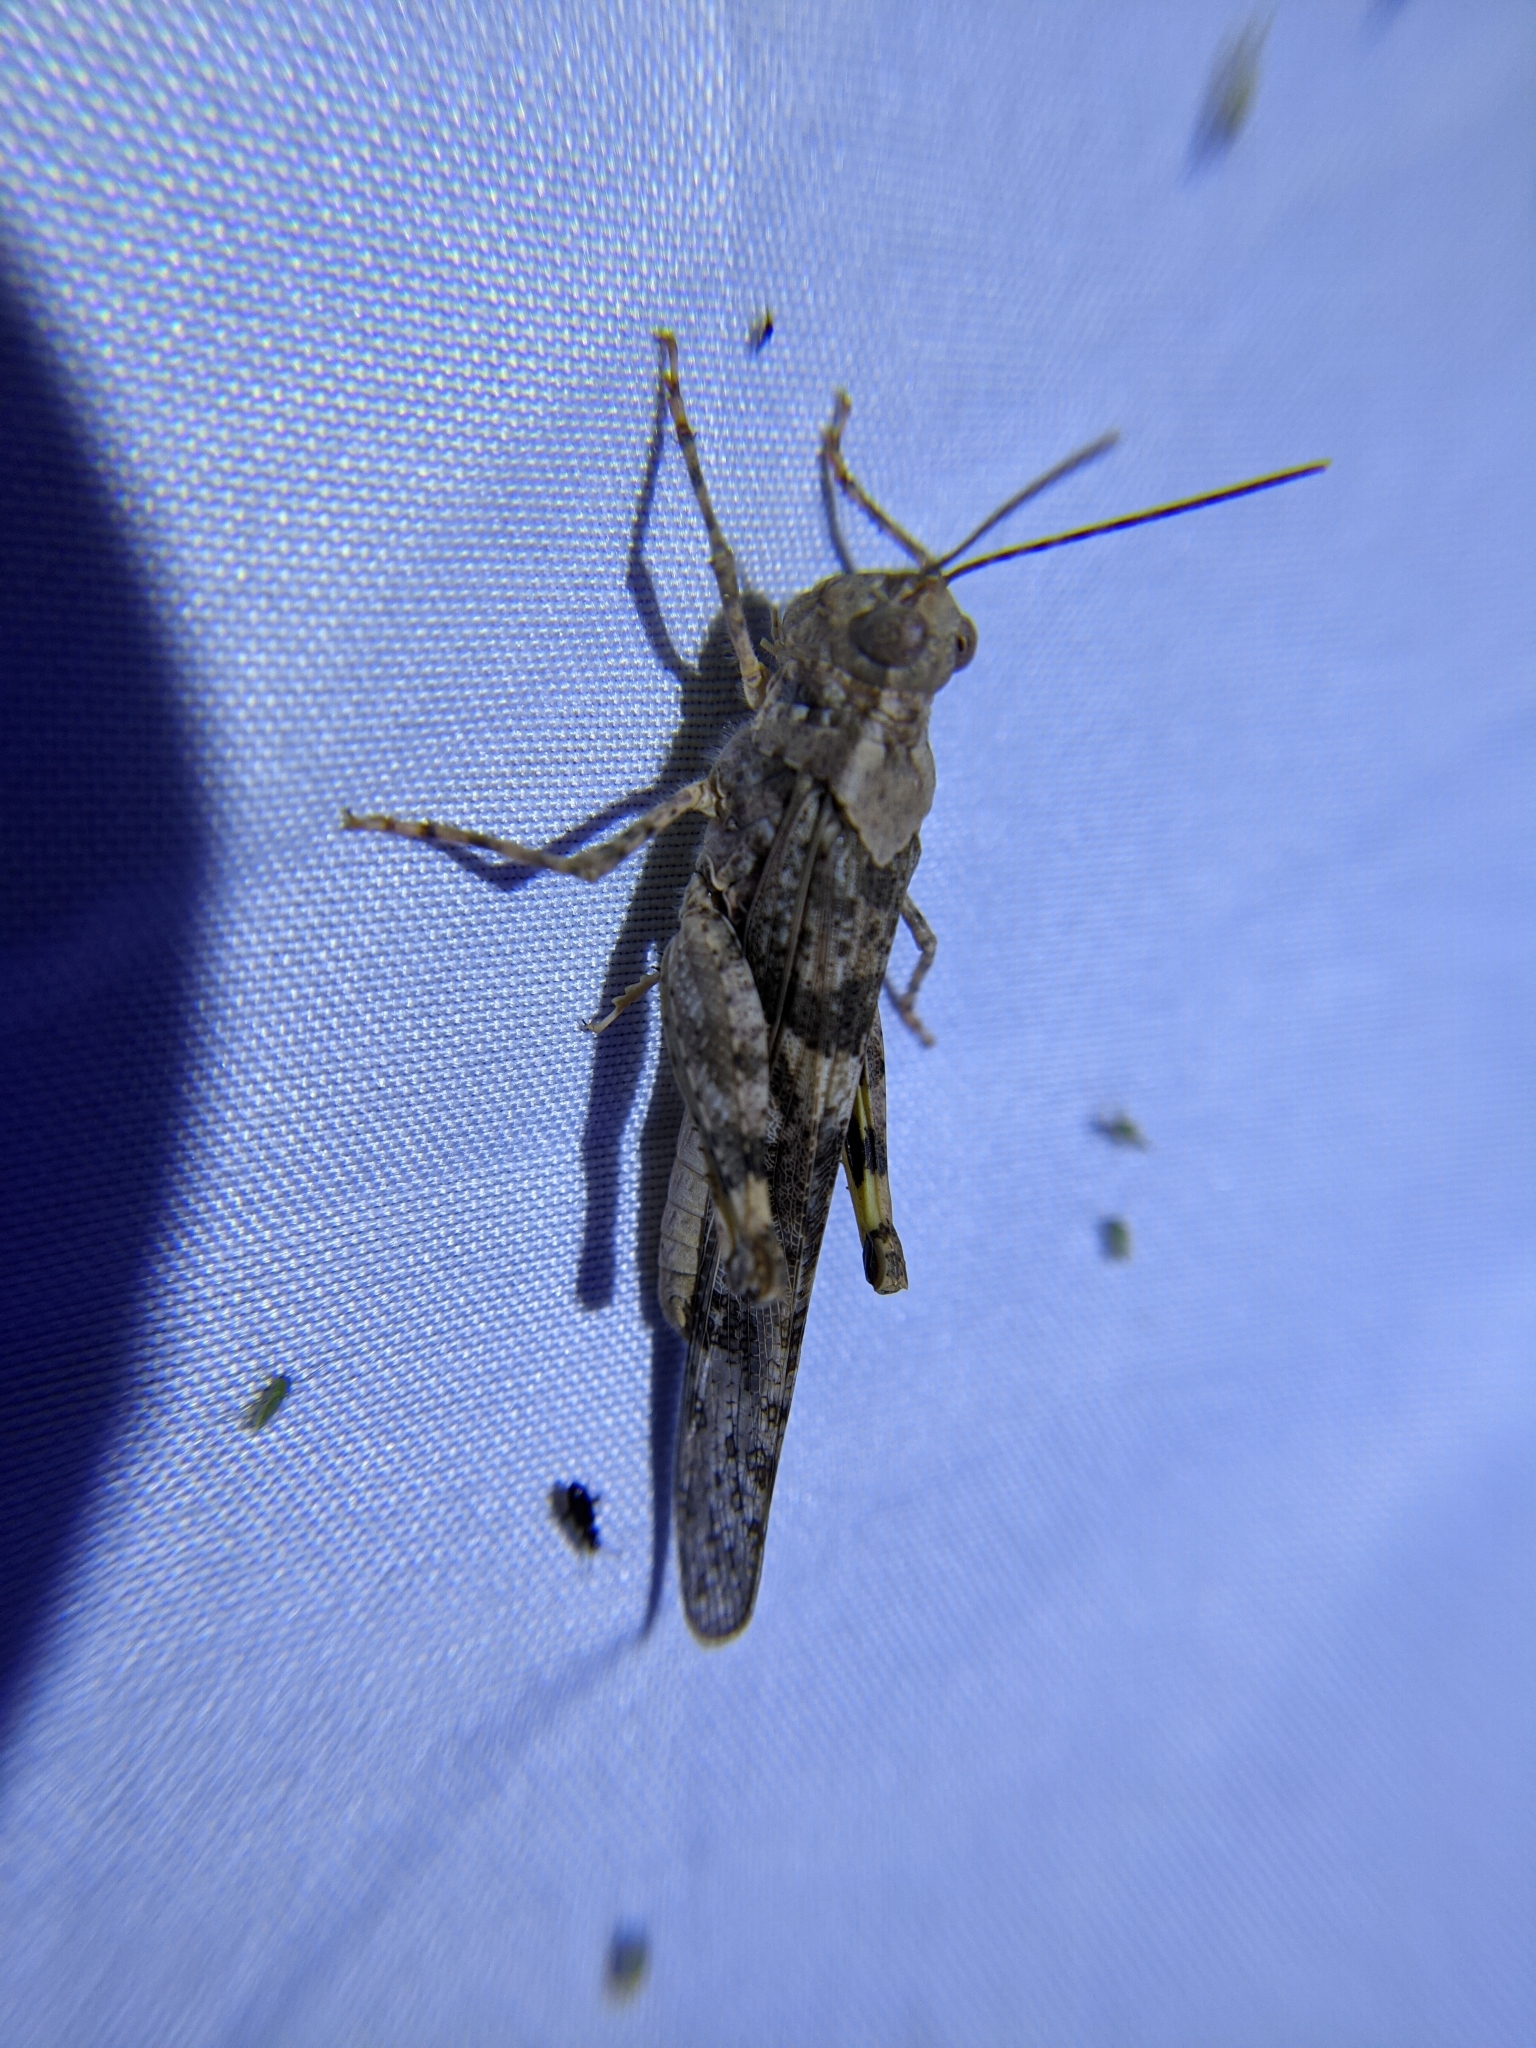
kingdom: Animalia
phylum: Arthropoda
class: Insecta
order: Orthoptera
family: Acrididae
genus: Trimerotropis
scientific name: Trimerotropis pallidipennis
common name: Pallid-winged grasshopper
